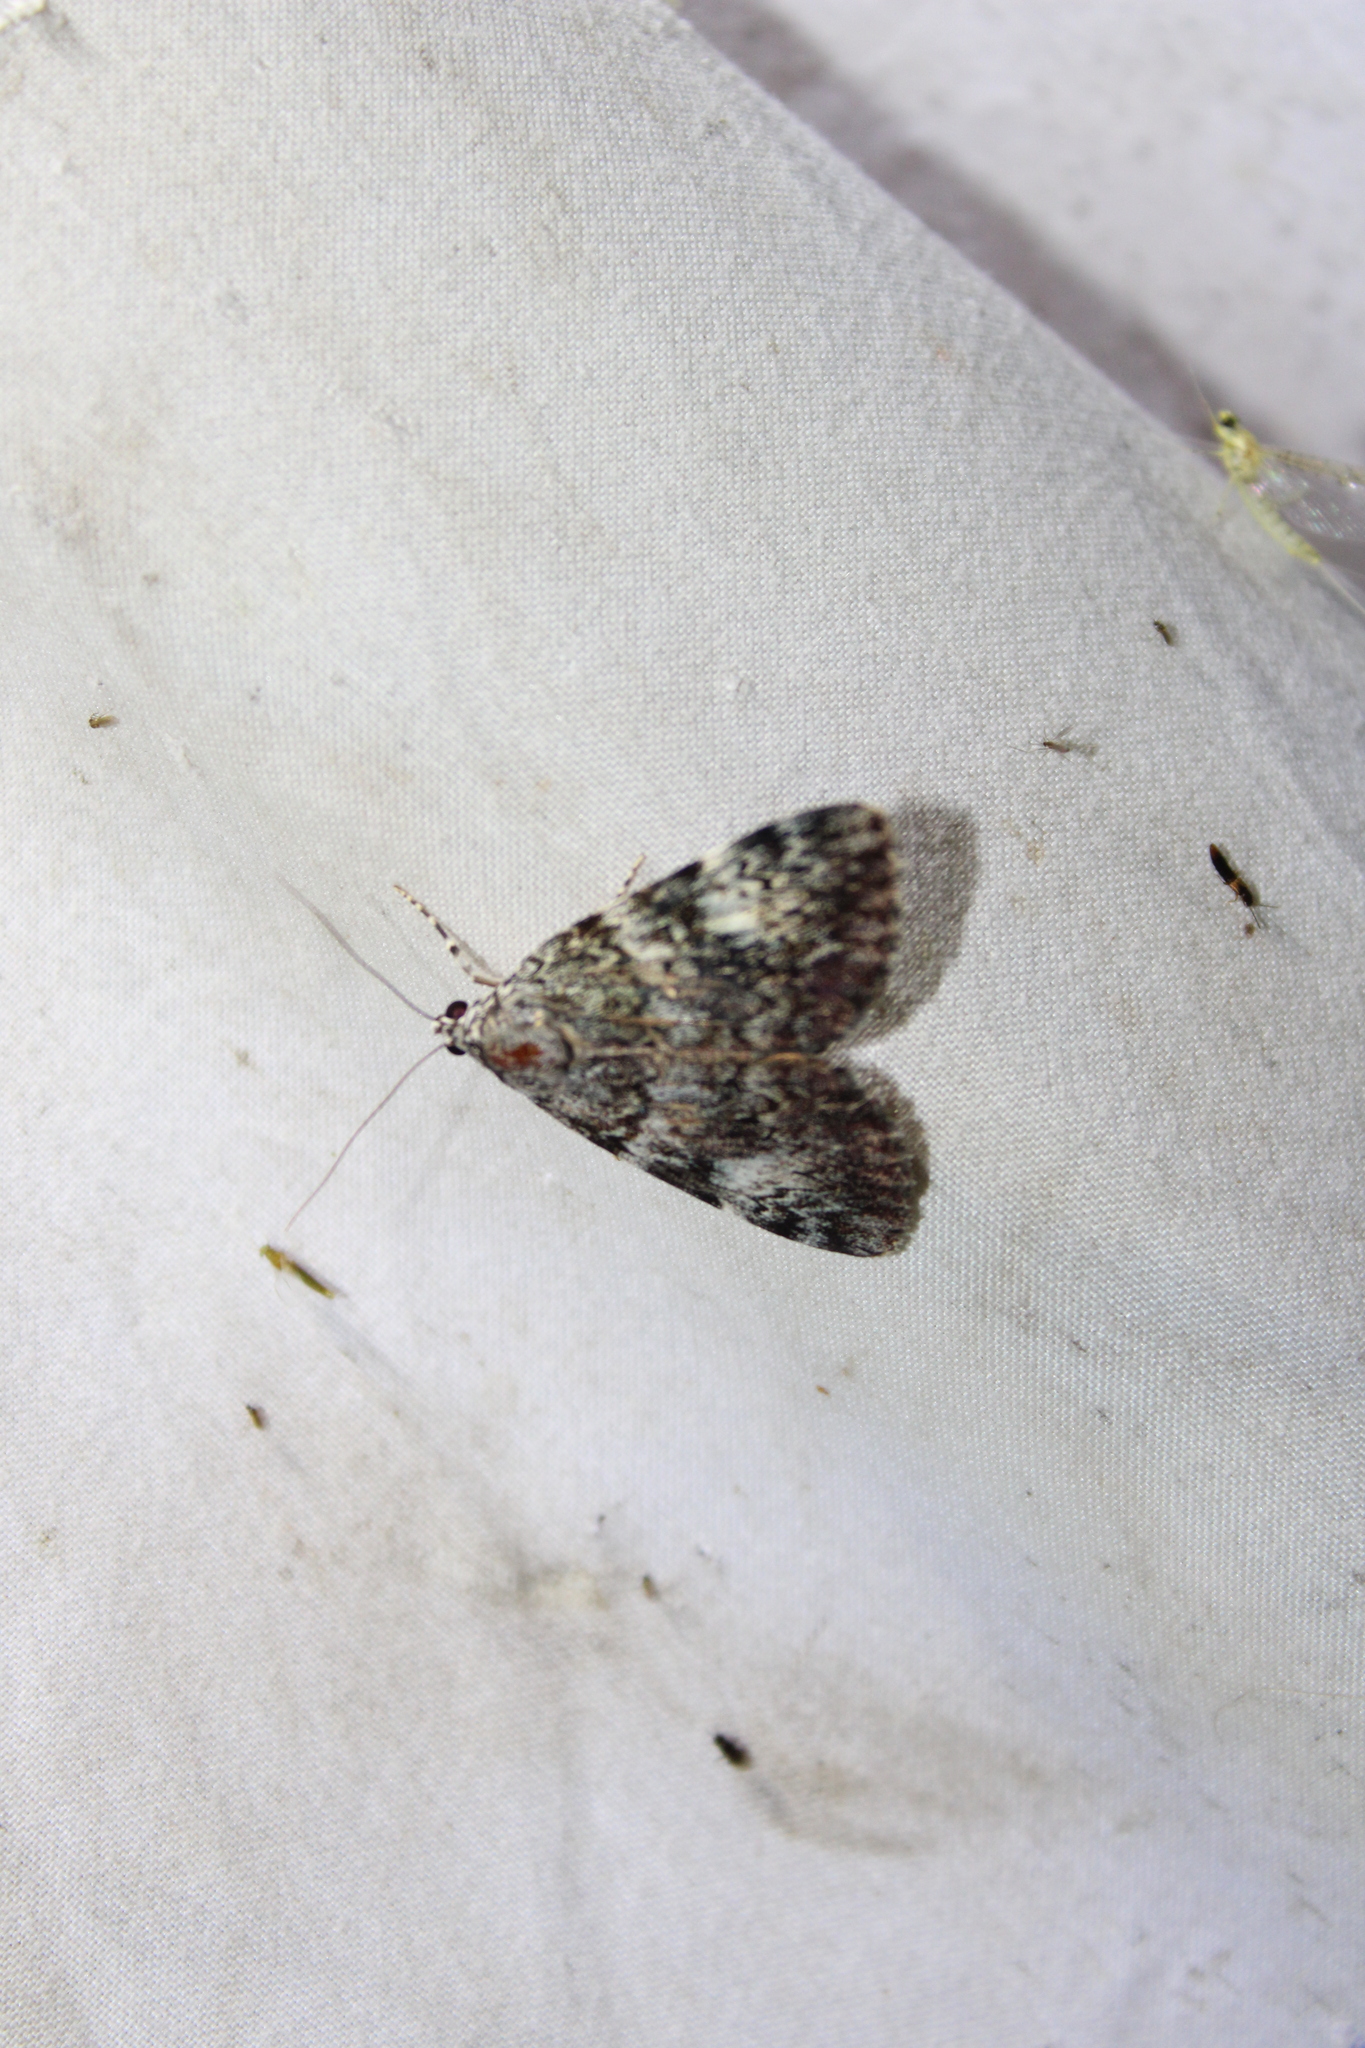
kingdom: Animalia
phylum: Arthropoda
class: Insecta
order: Lepidoptera
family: Erebidae
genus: Catocala
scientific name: Catocala lineella
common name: Little lined underwing
